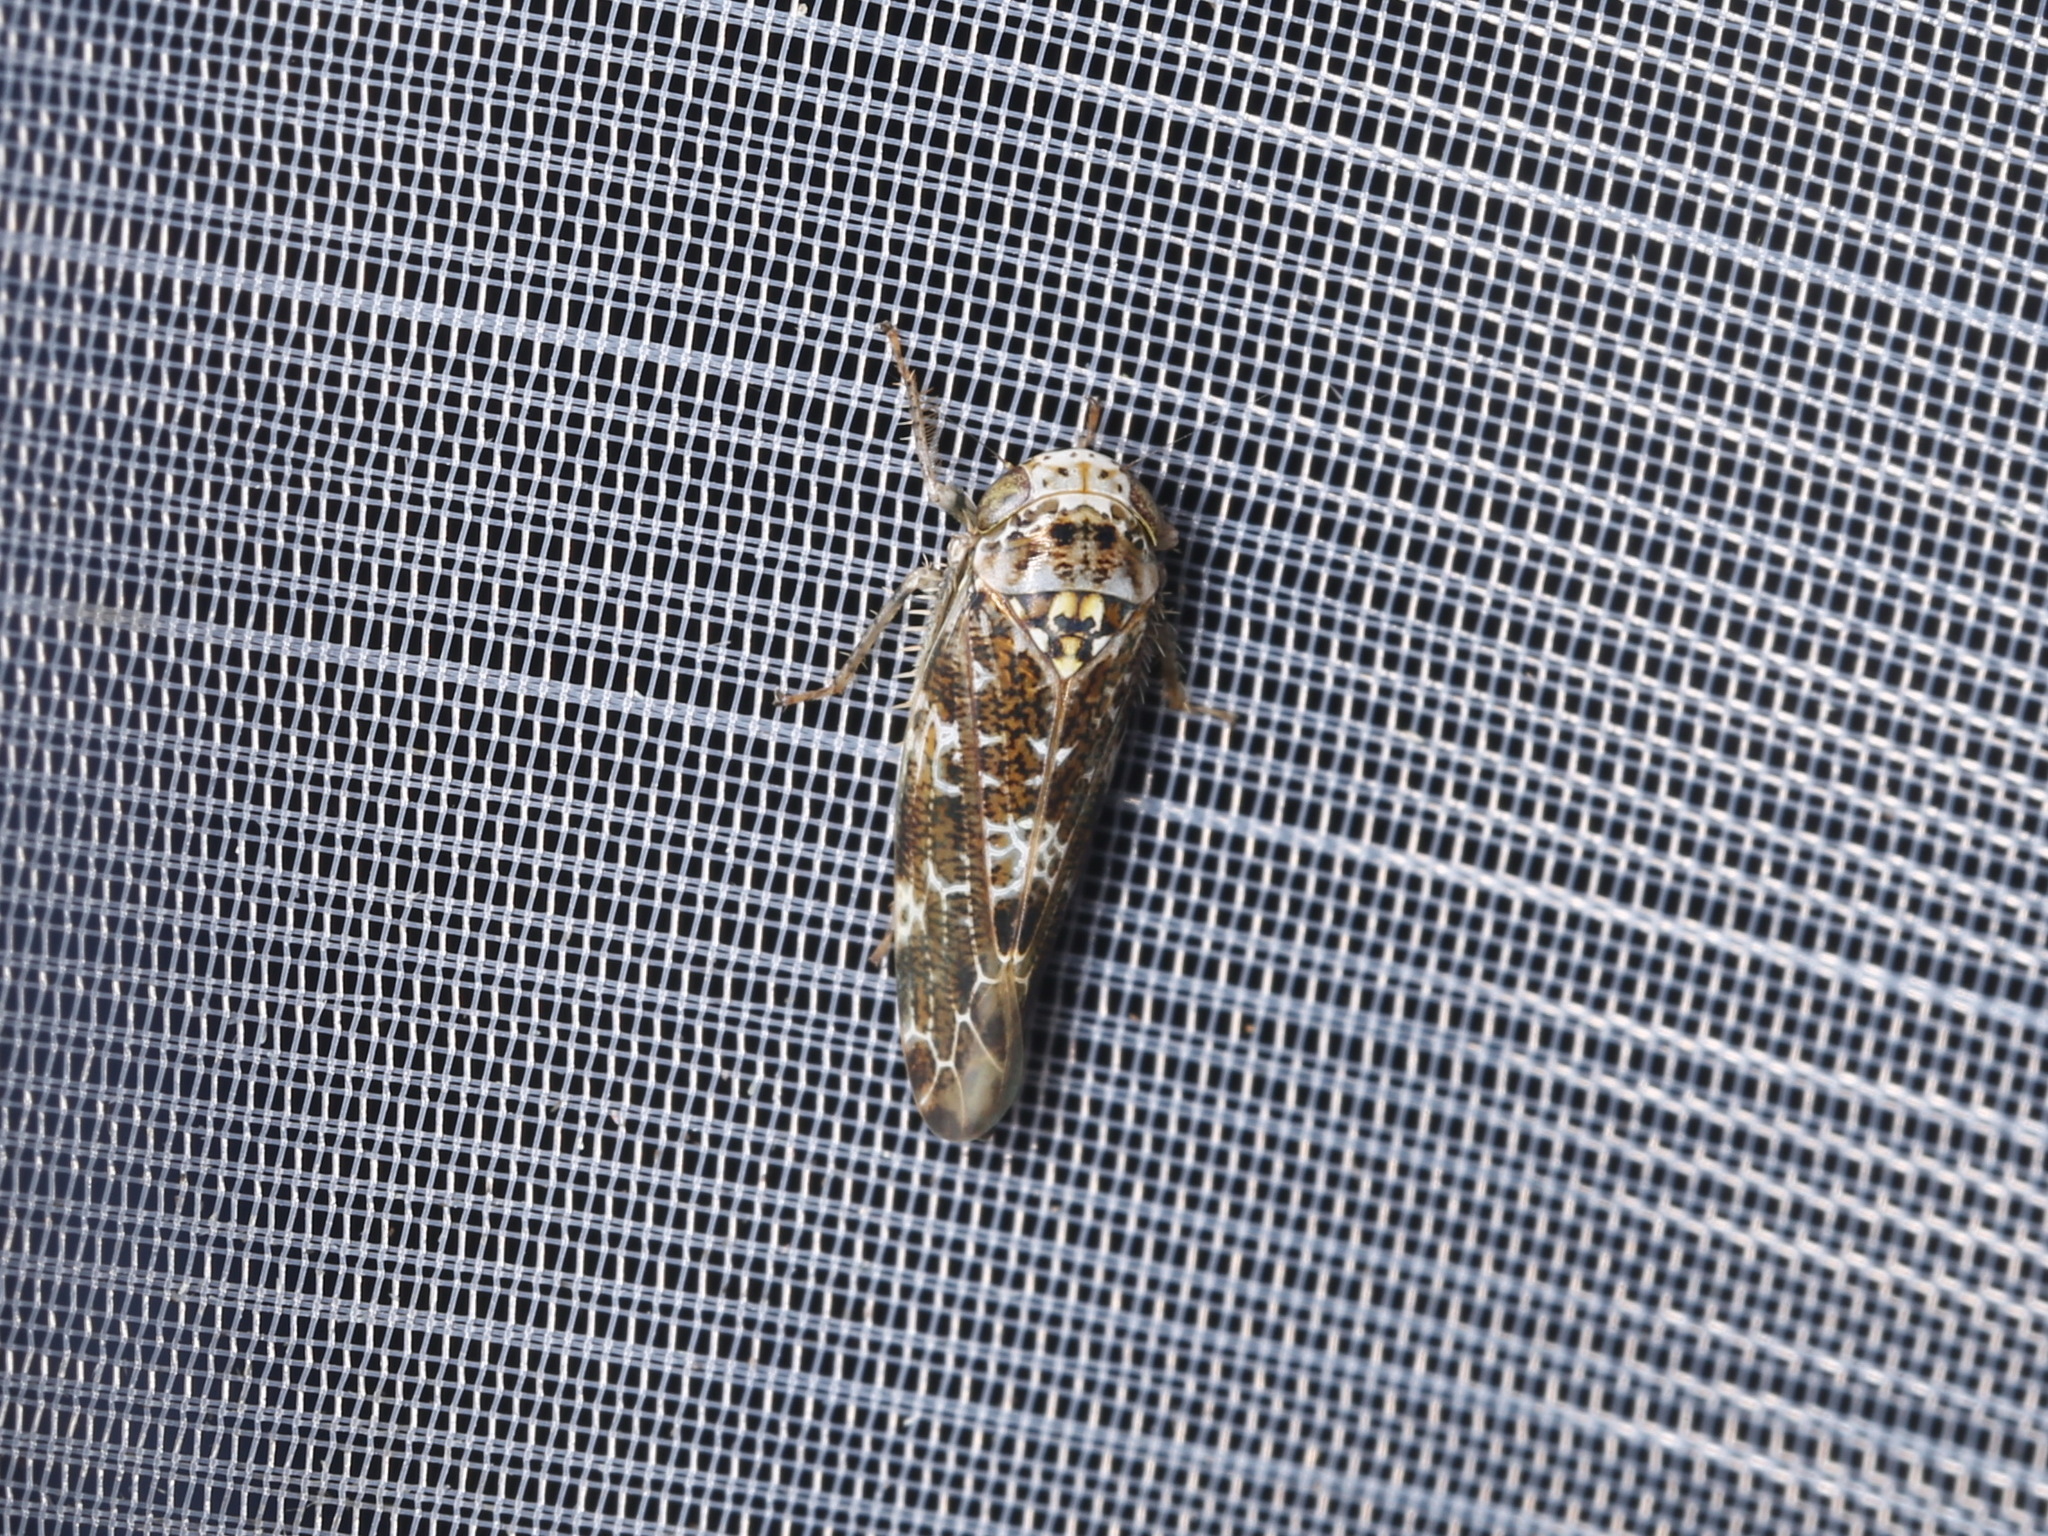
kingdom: Animalia
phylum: Arthropoda
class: Insecta
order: Hemiptera
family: Cicadellidae
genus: Allygus
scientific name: Allygus mixtus
